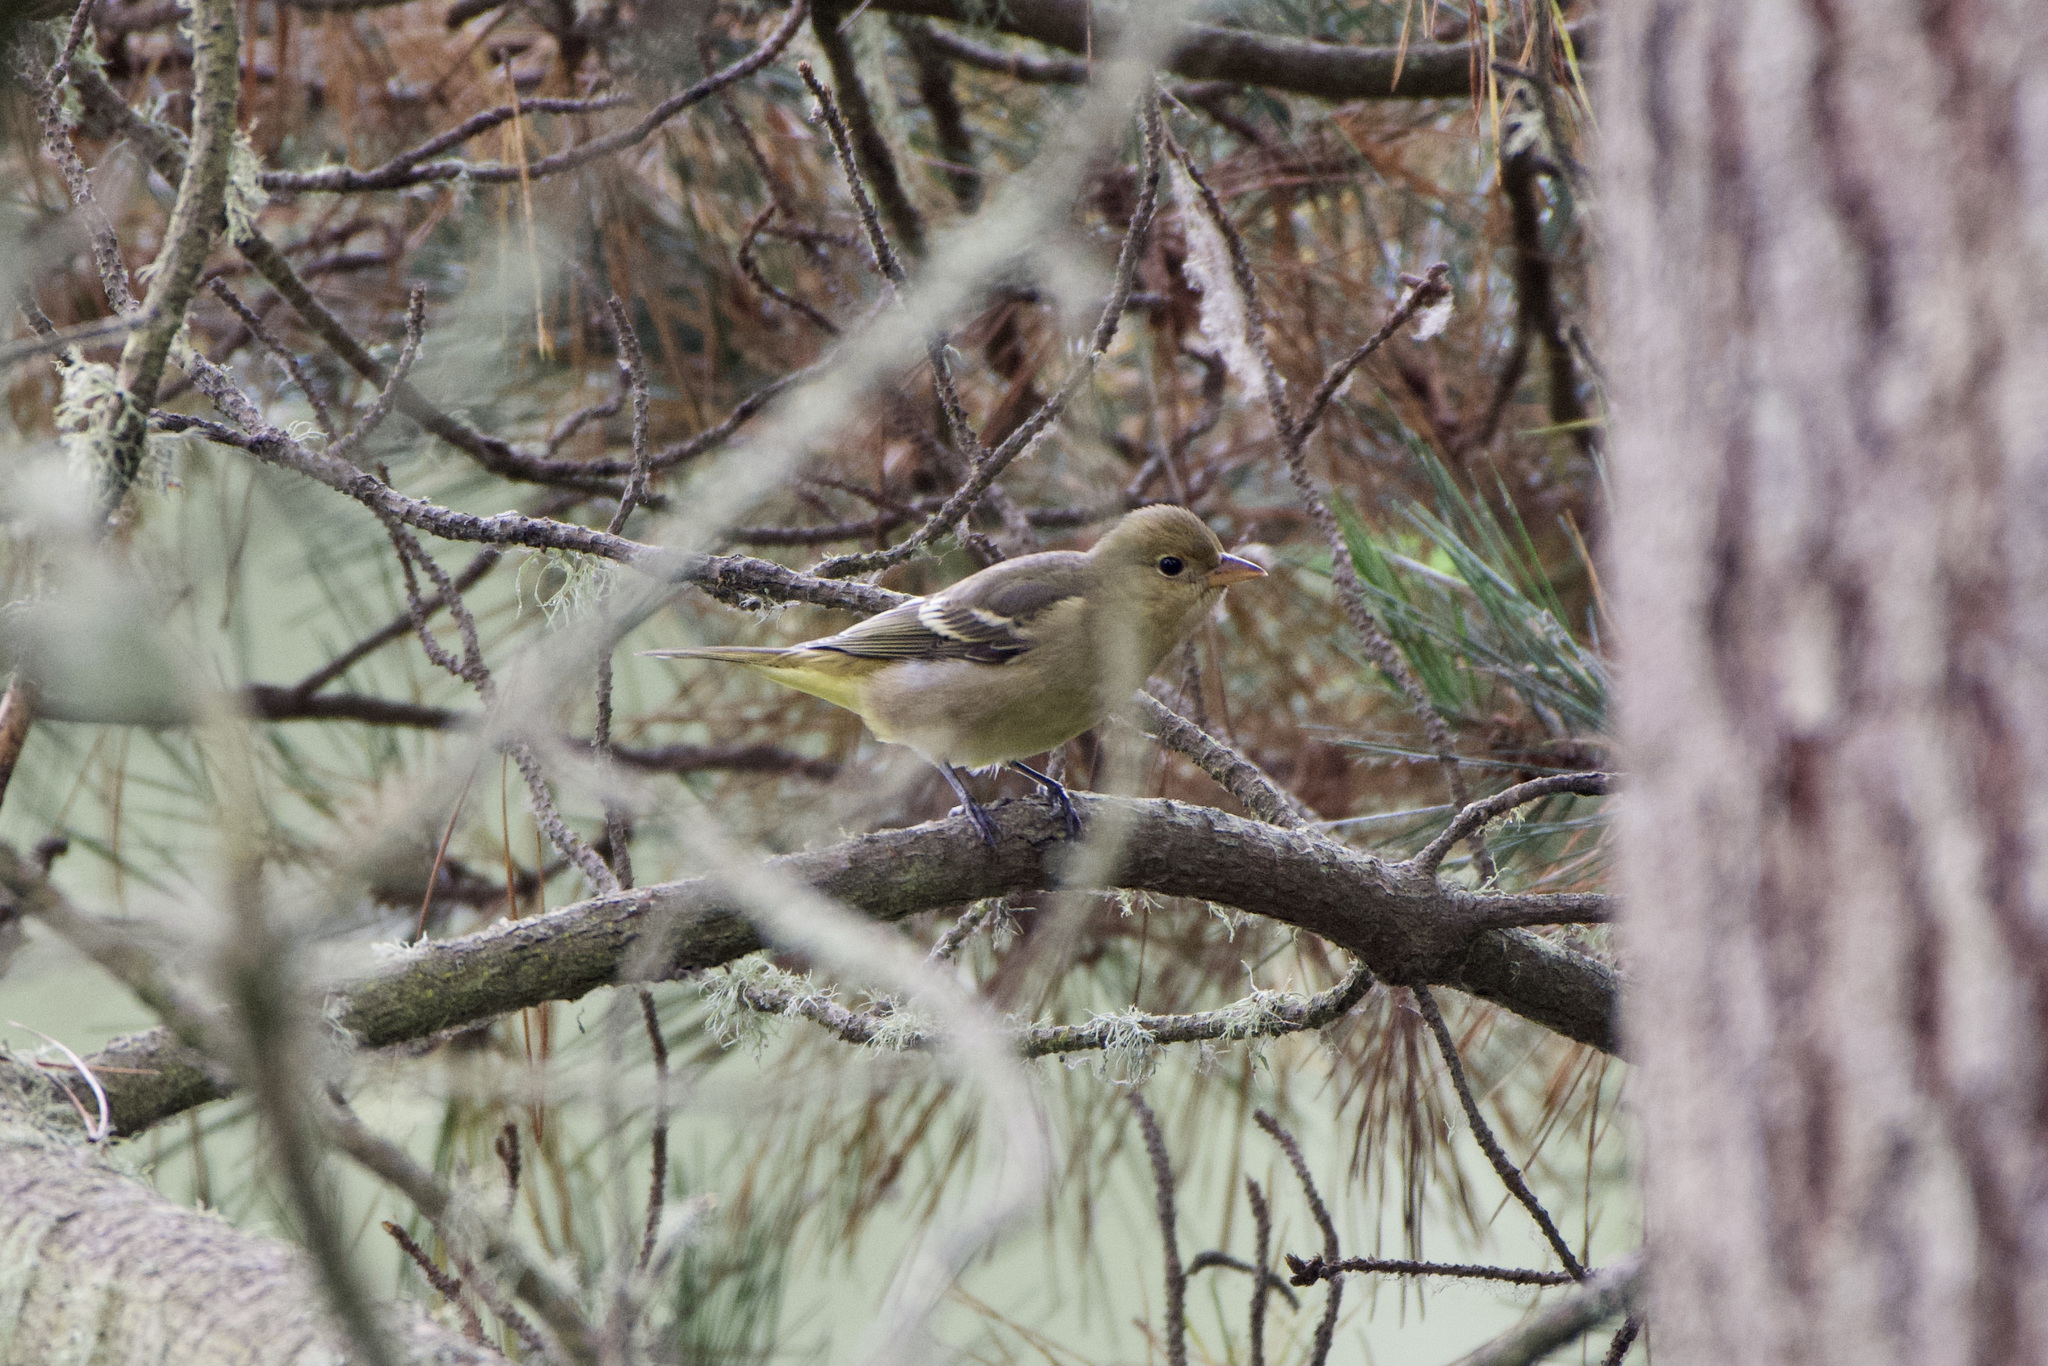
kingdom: Animalia
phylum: Chordata
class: Aves
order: Passeriformes
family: Cardinalidae
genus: Piranga
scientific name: Piranga ludoviciana
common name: Western tanager
